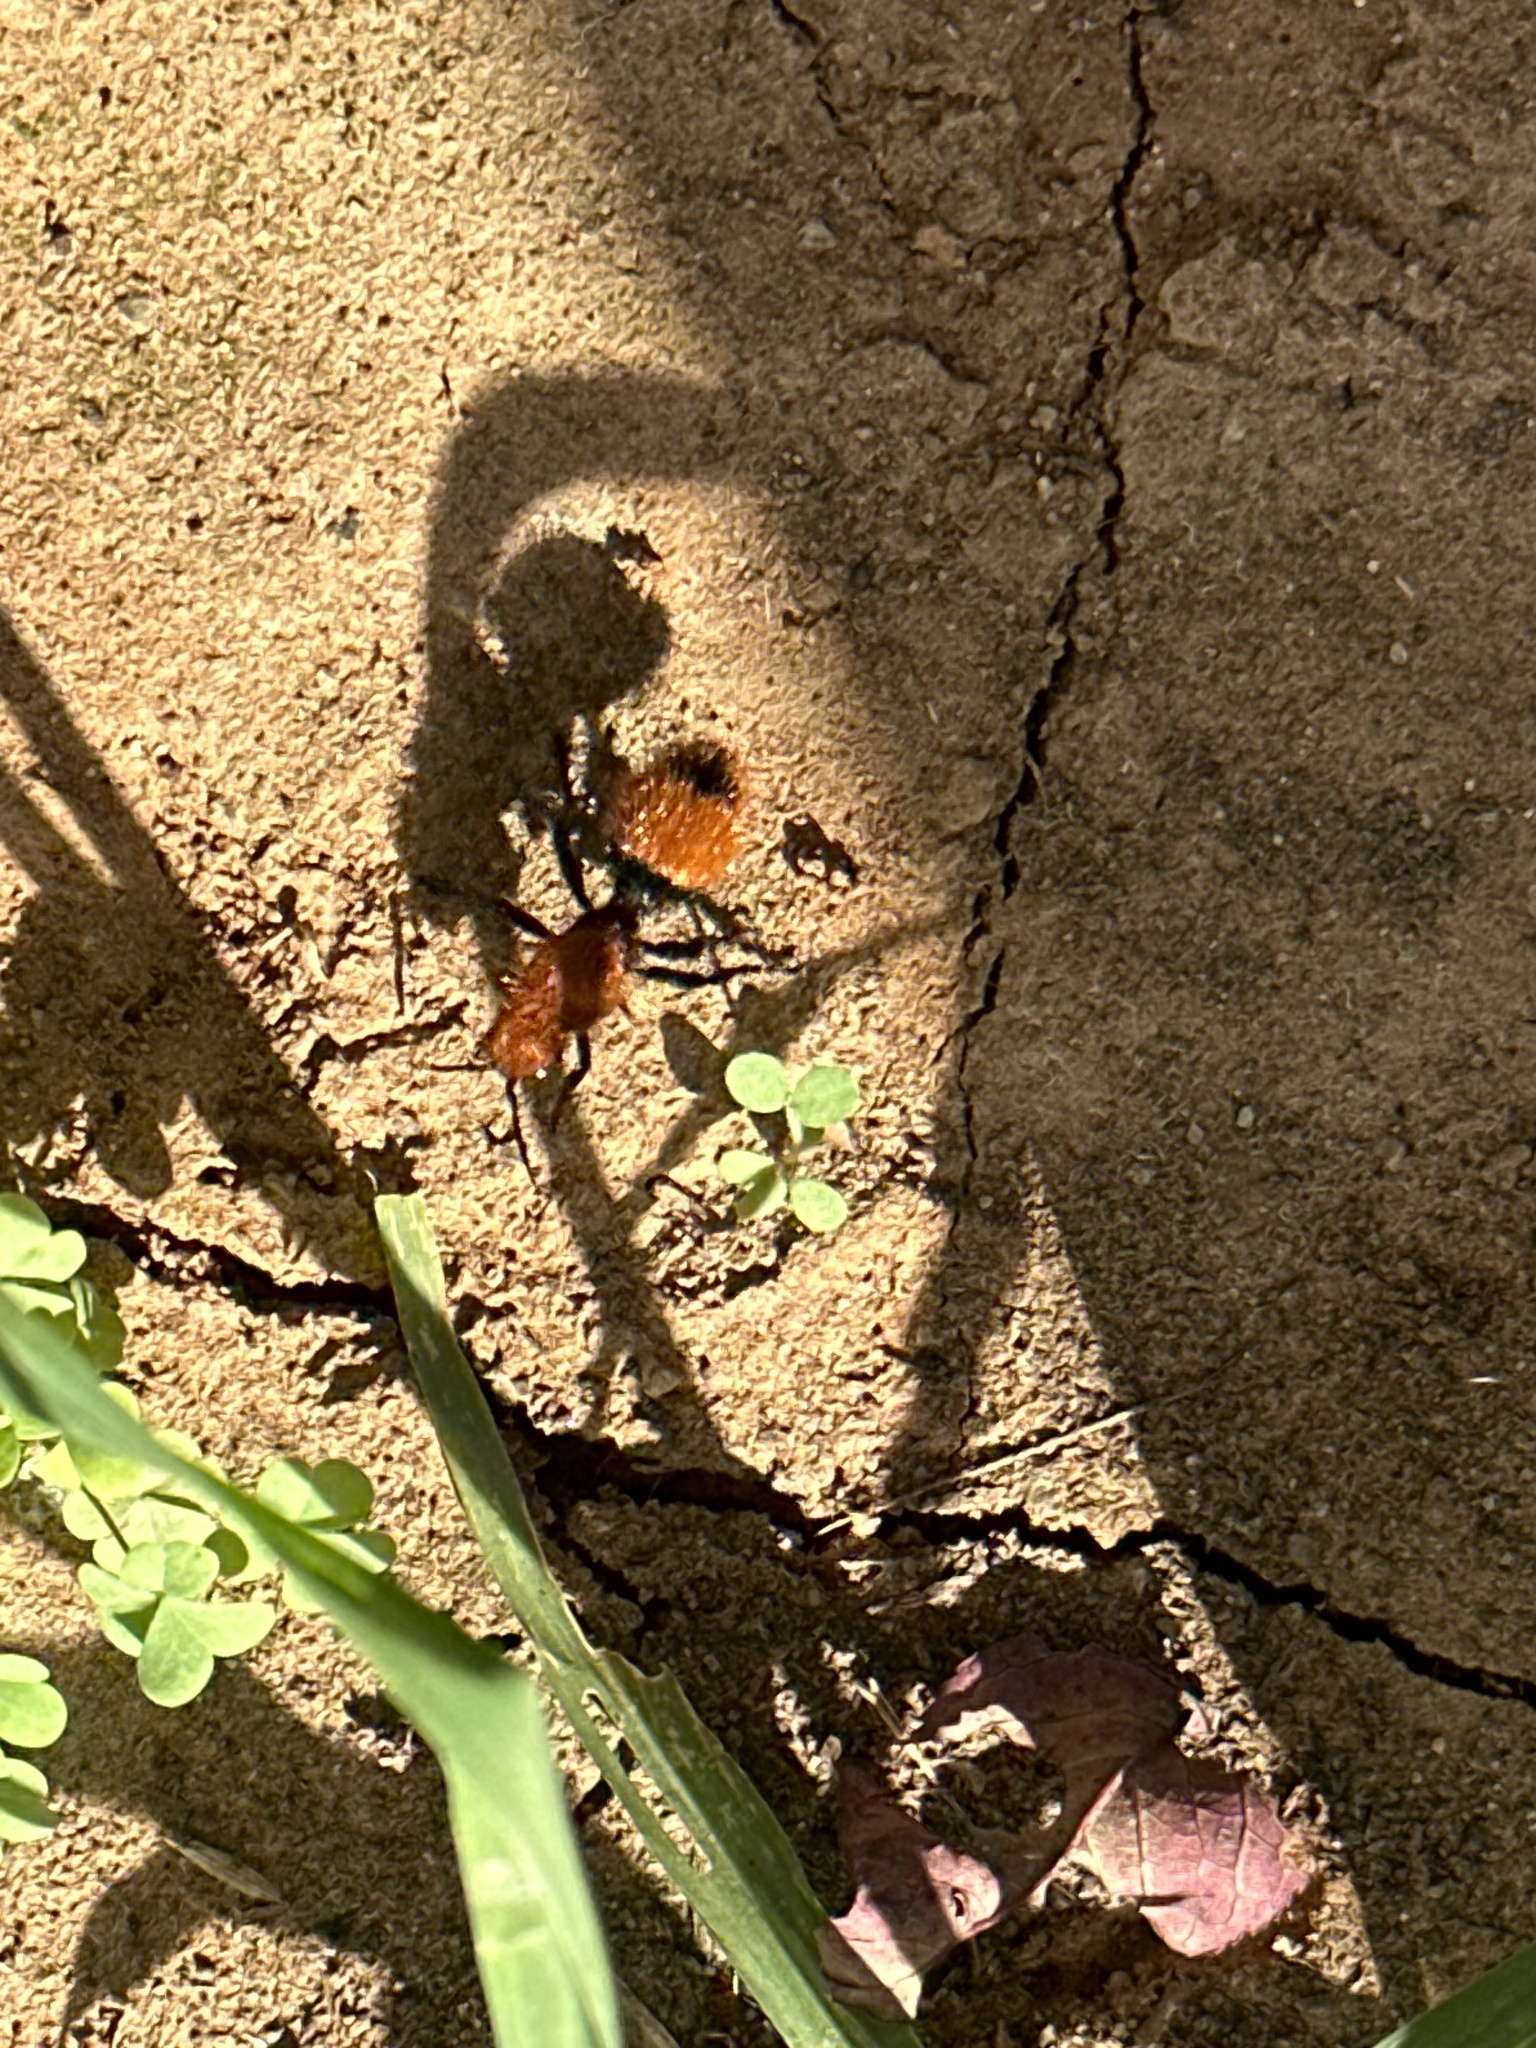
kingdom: Animalia
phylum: Arthropoda
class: Insecta
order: Hymenoptera
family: Mutillidae
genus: Dasymutilla
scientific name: Dasymutilla occidentalis
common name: Common eastern velvet ant
